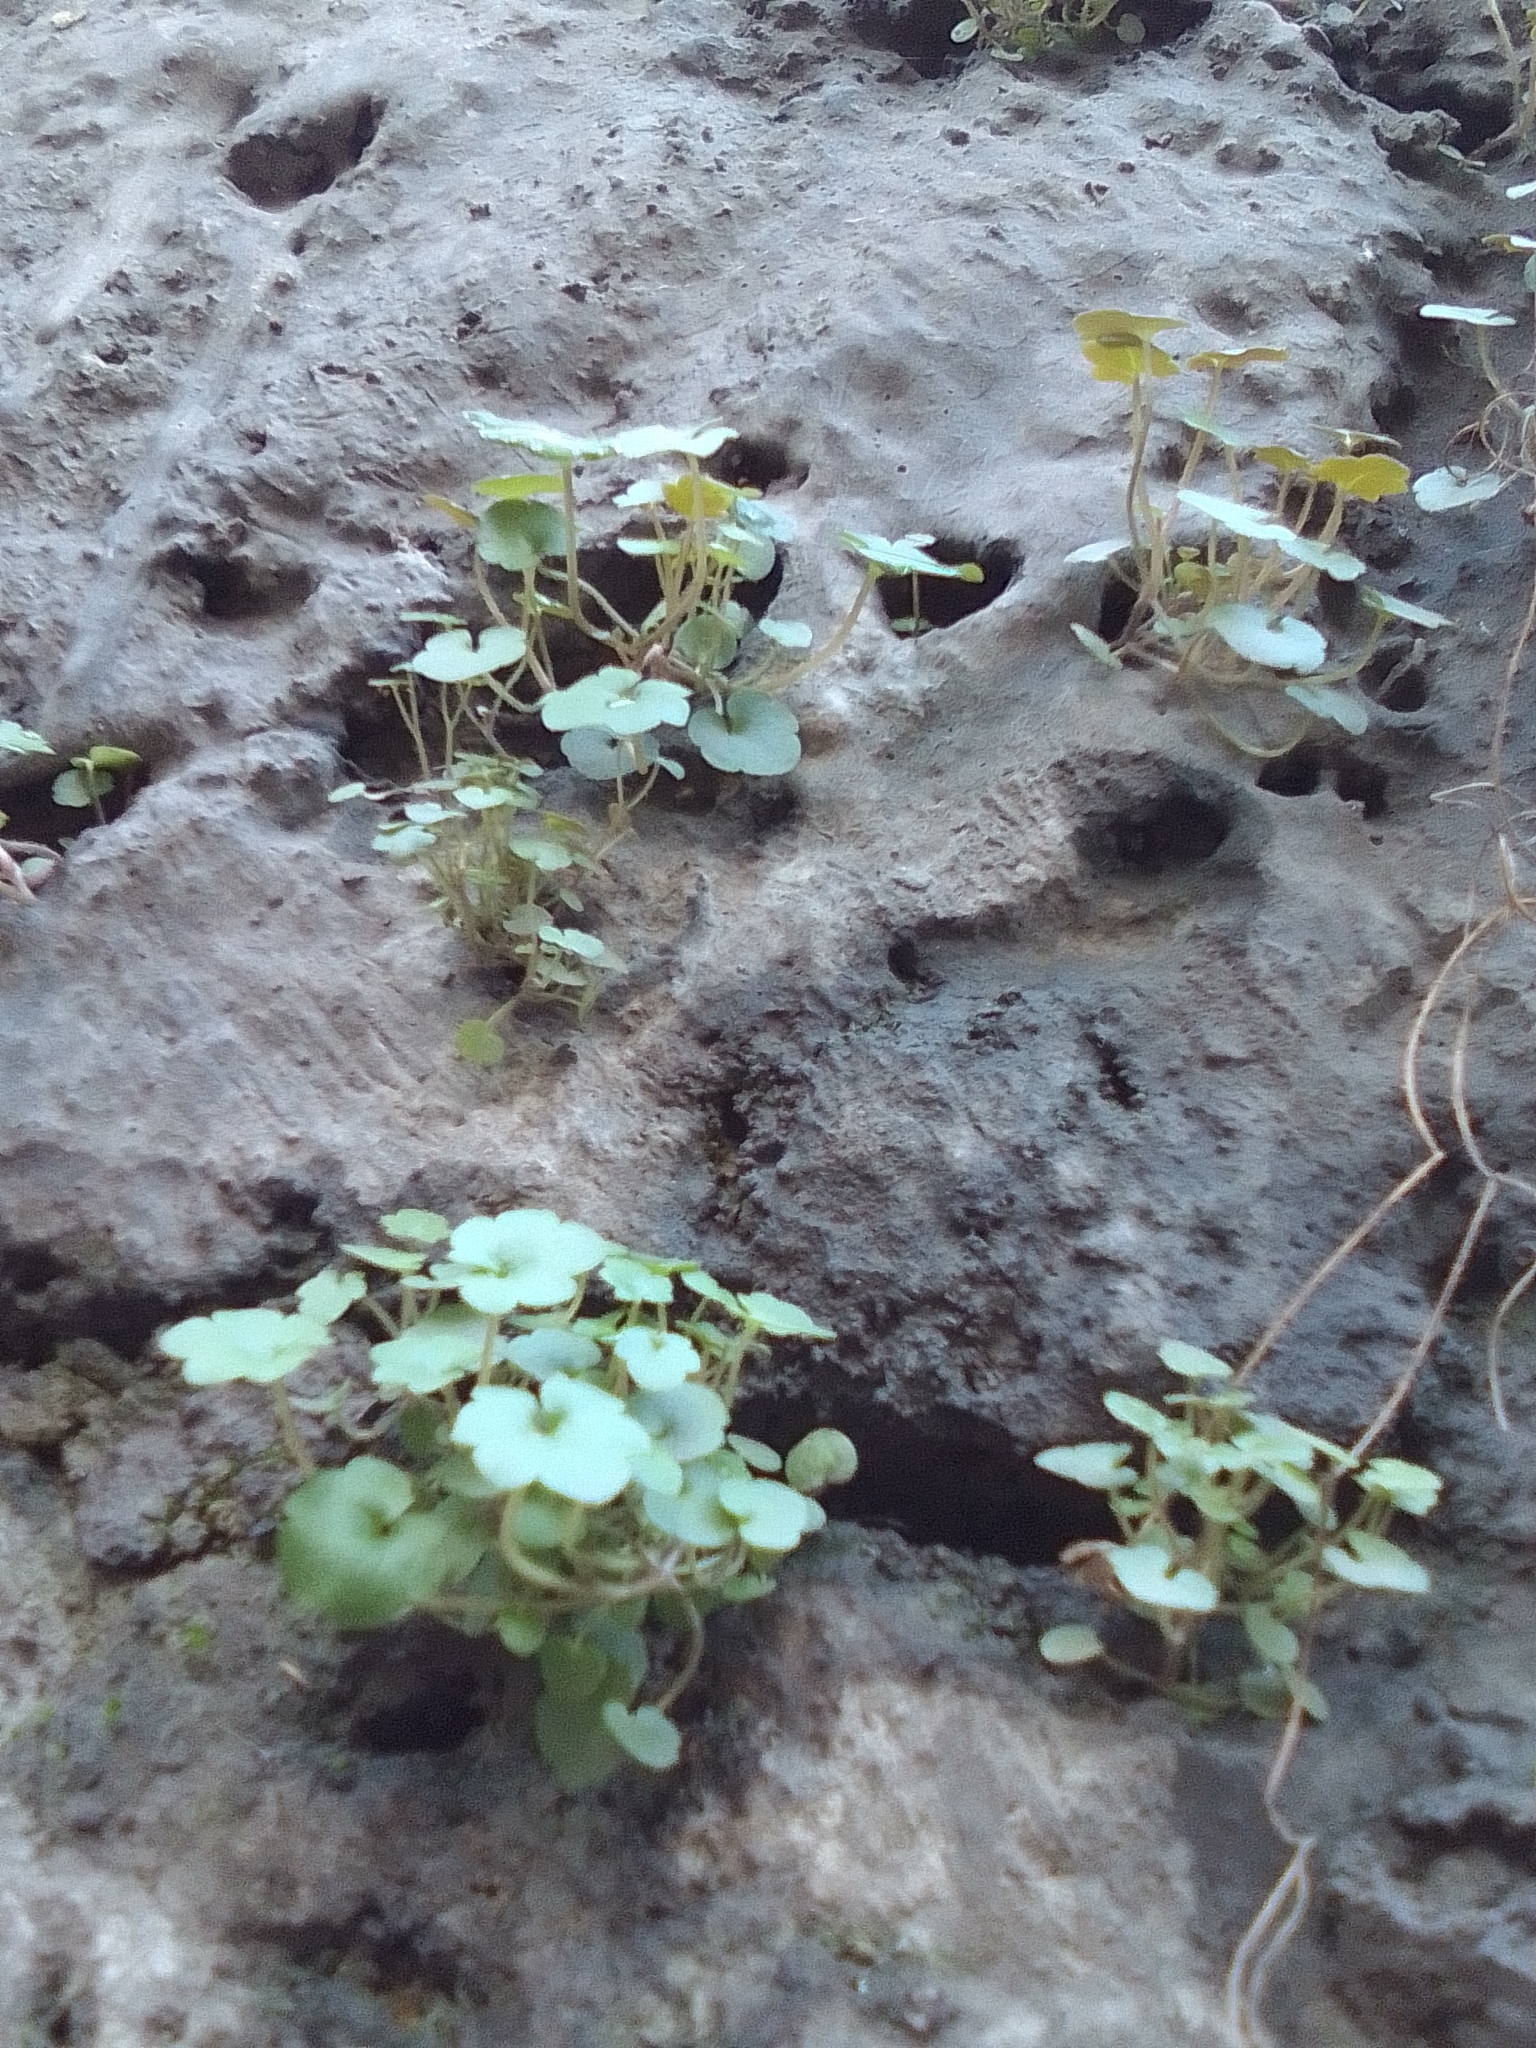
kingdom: Plantae
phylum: Tracheophyta
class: Magnoliopsida
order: Lamiales
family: Plantaginaceae
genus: Cymbalaria
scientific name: Cymbalaria muralis
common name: Ivy-leaved toadflax
